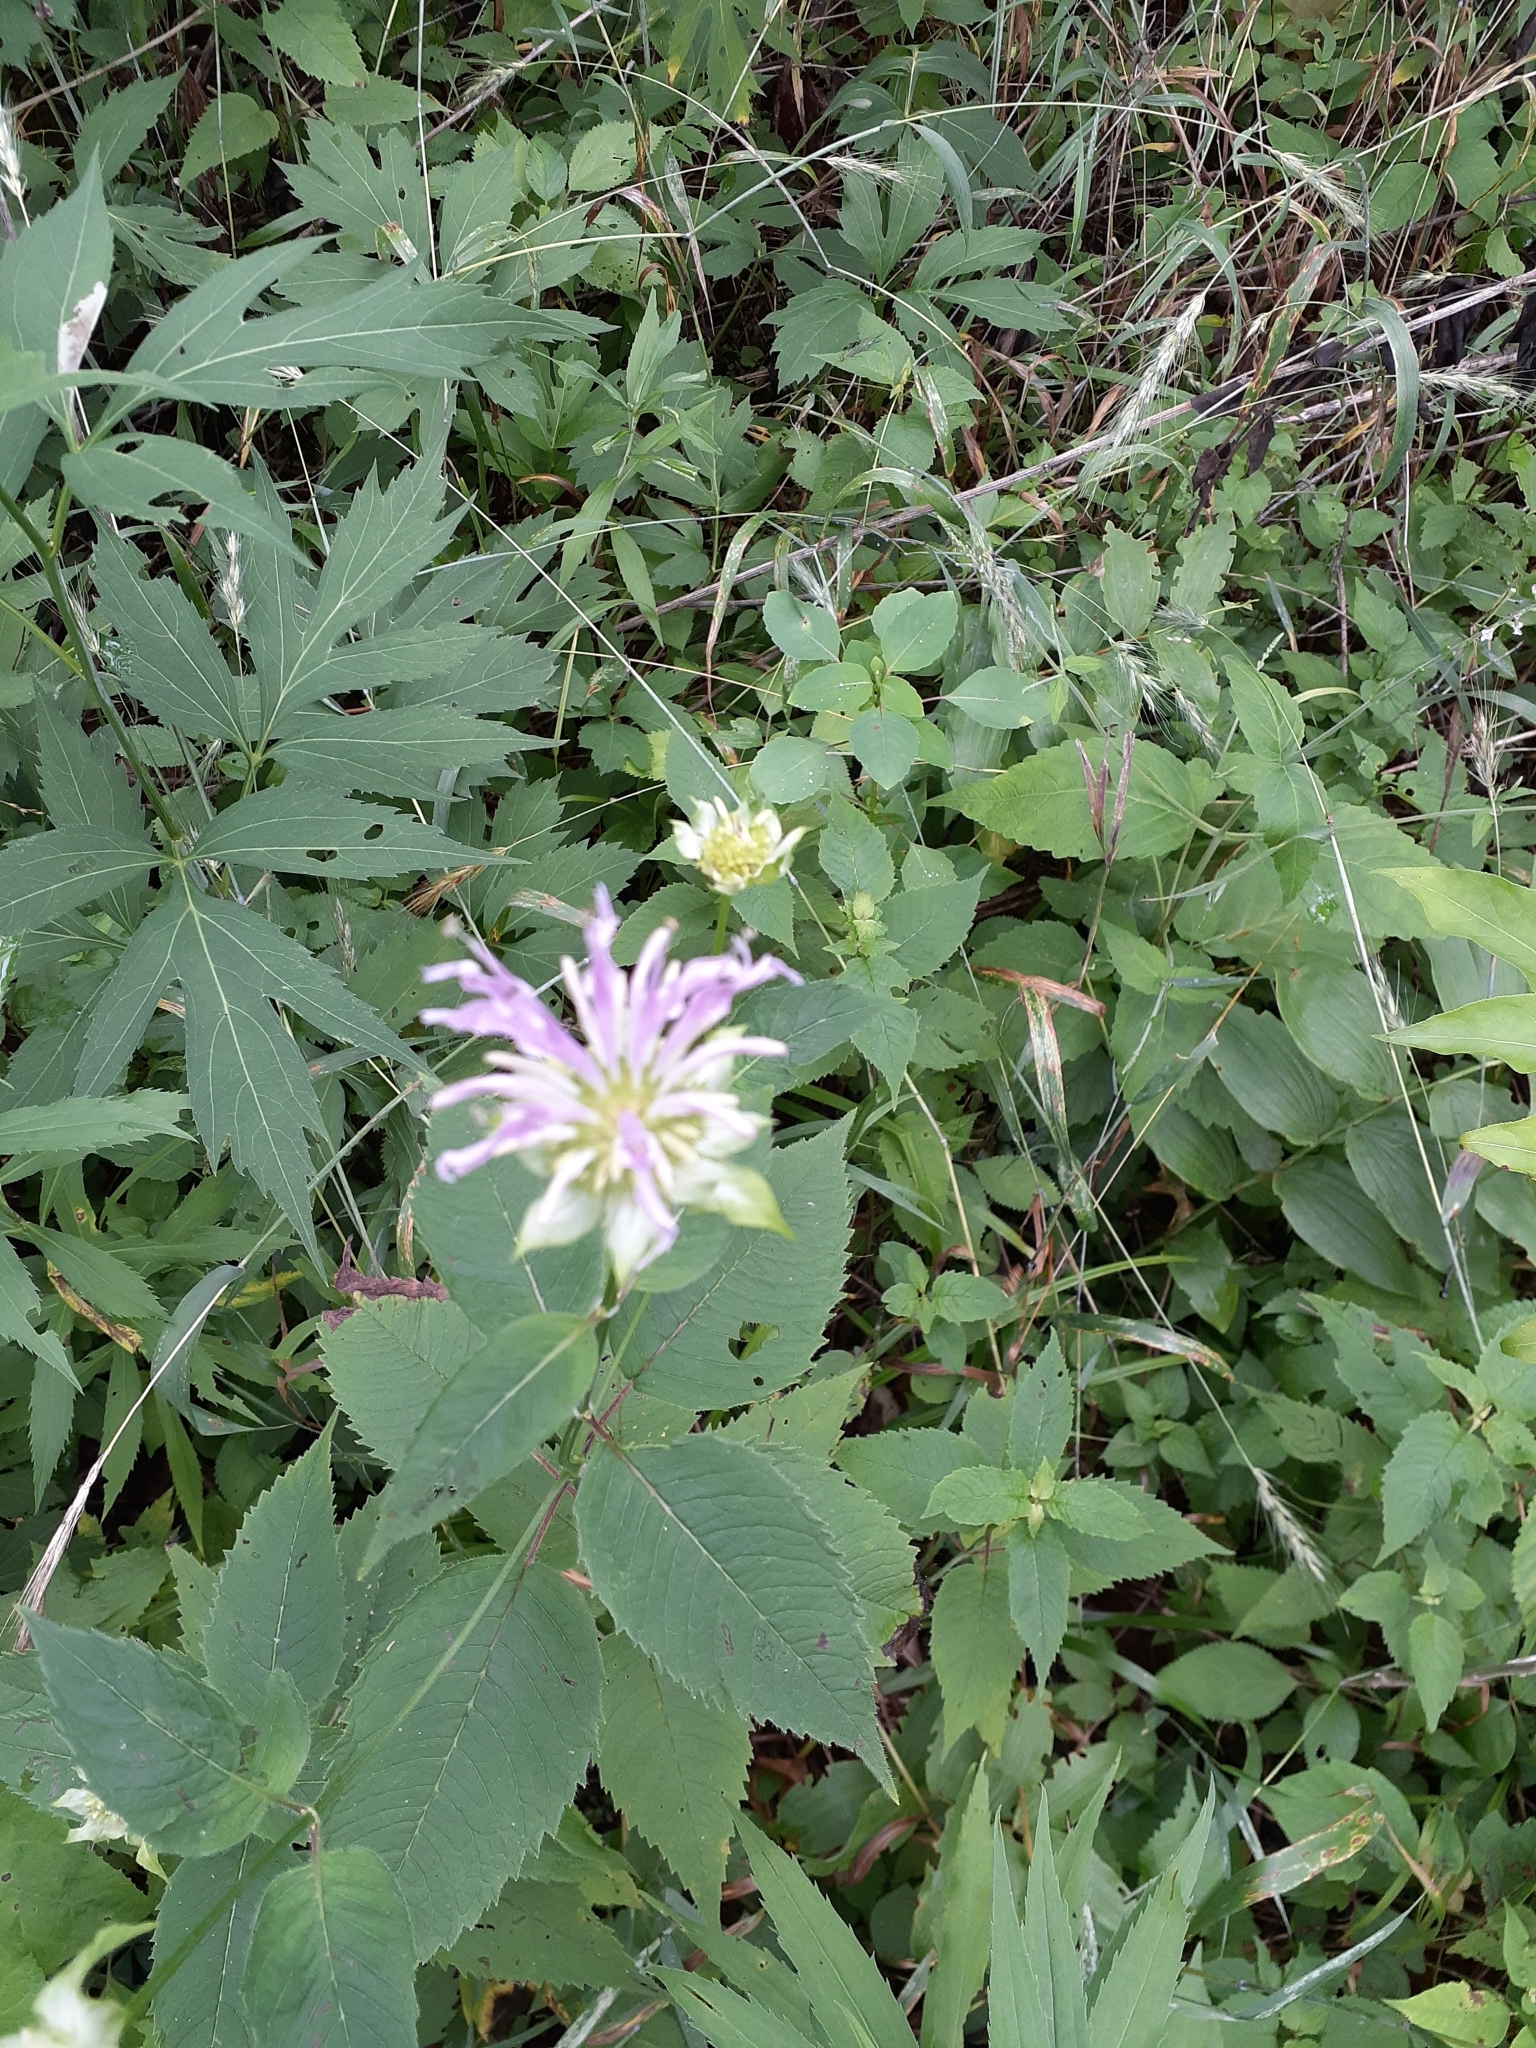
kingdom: Plantae
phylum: Tracheophyta
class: Magnoliopsida
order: Lamiales
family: Lamiaceae
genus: Monarda
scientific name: Monarda fistulosa
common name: Purple beebalm
